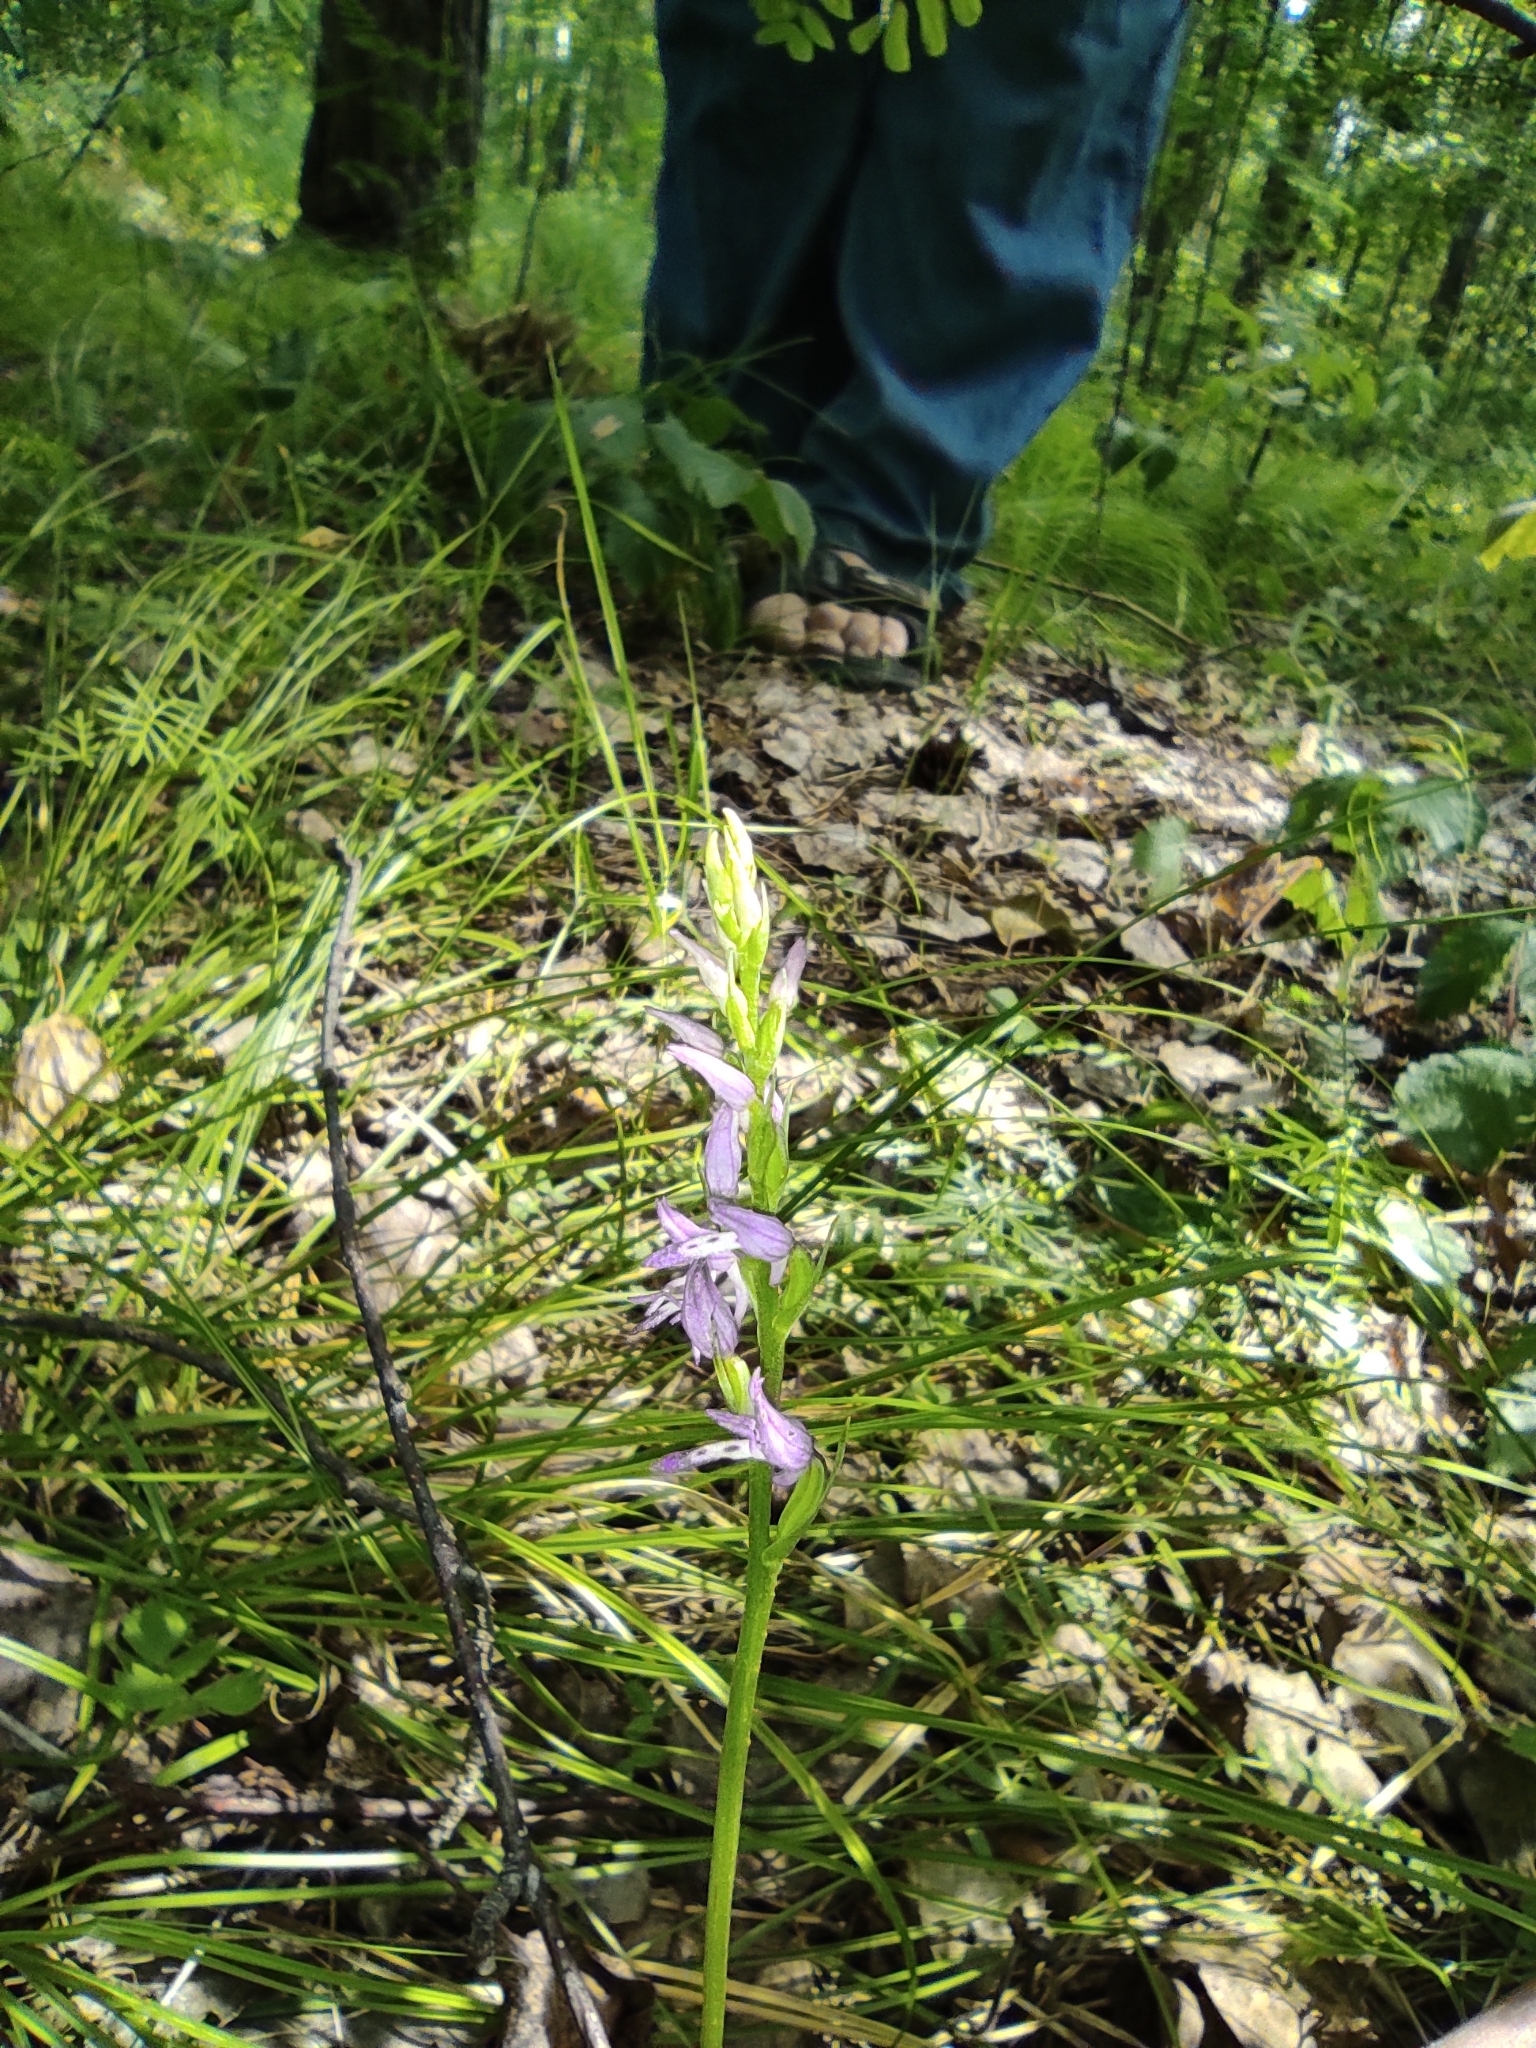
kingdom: Plantae
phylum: Tracheophyta
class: Liliopsida
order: Asparagales
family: Orchidaceae
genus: Hemipilia
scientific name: Hemipilia cucullata
